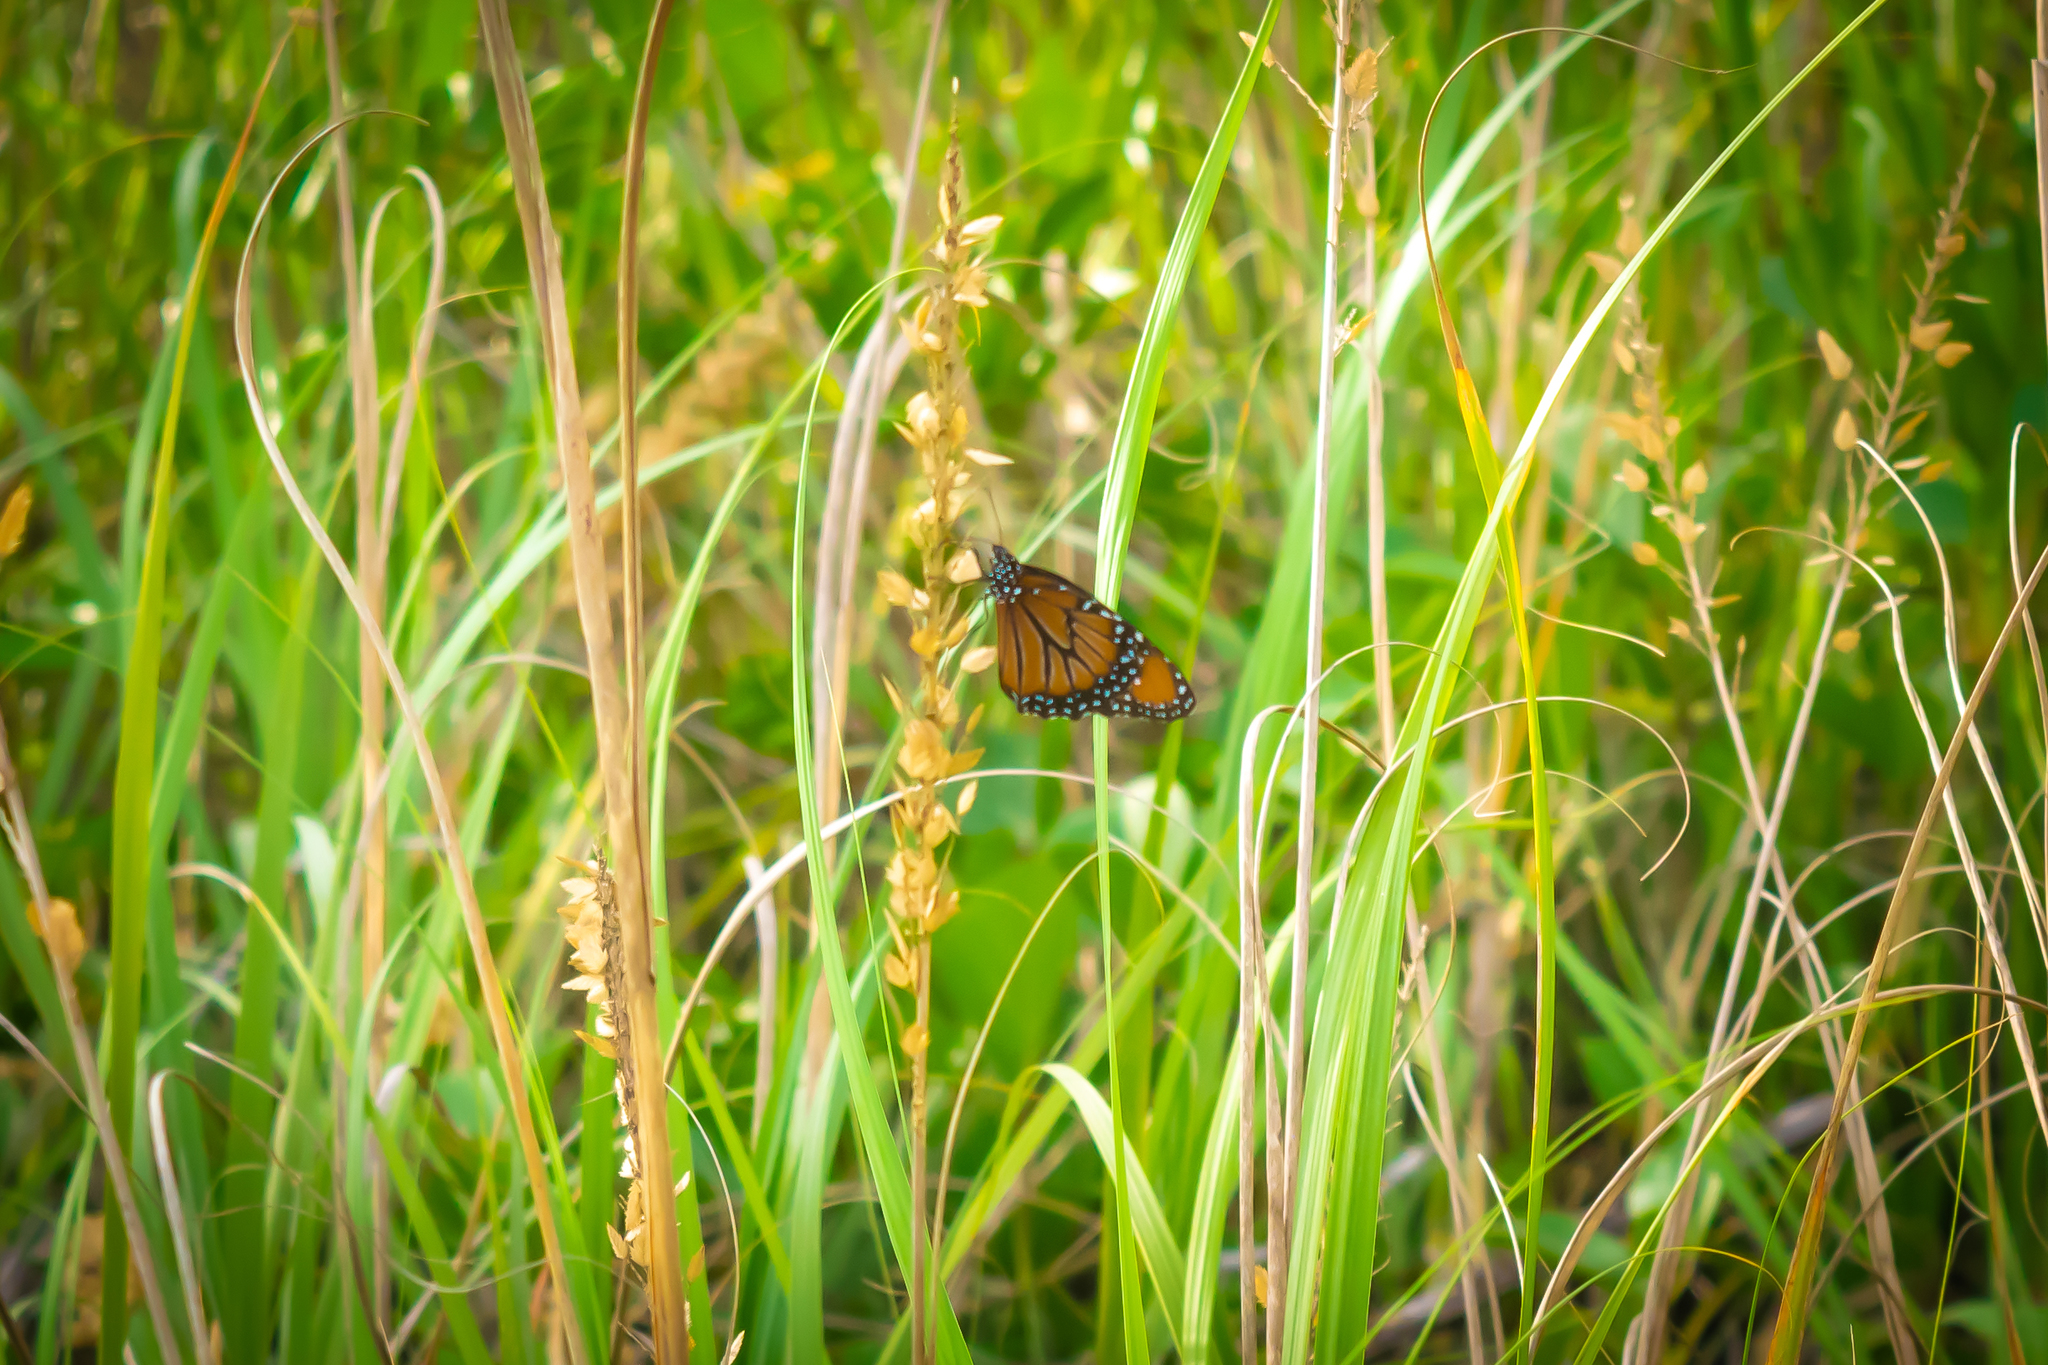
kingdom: Animalia
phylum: Arthropoda
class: Insecta
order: Lepidoptera
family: Nymphalidae
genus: Danaus
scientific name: Danaus gilippus
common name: Queen
